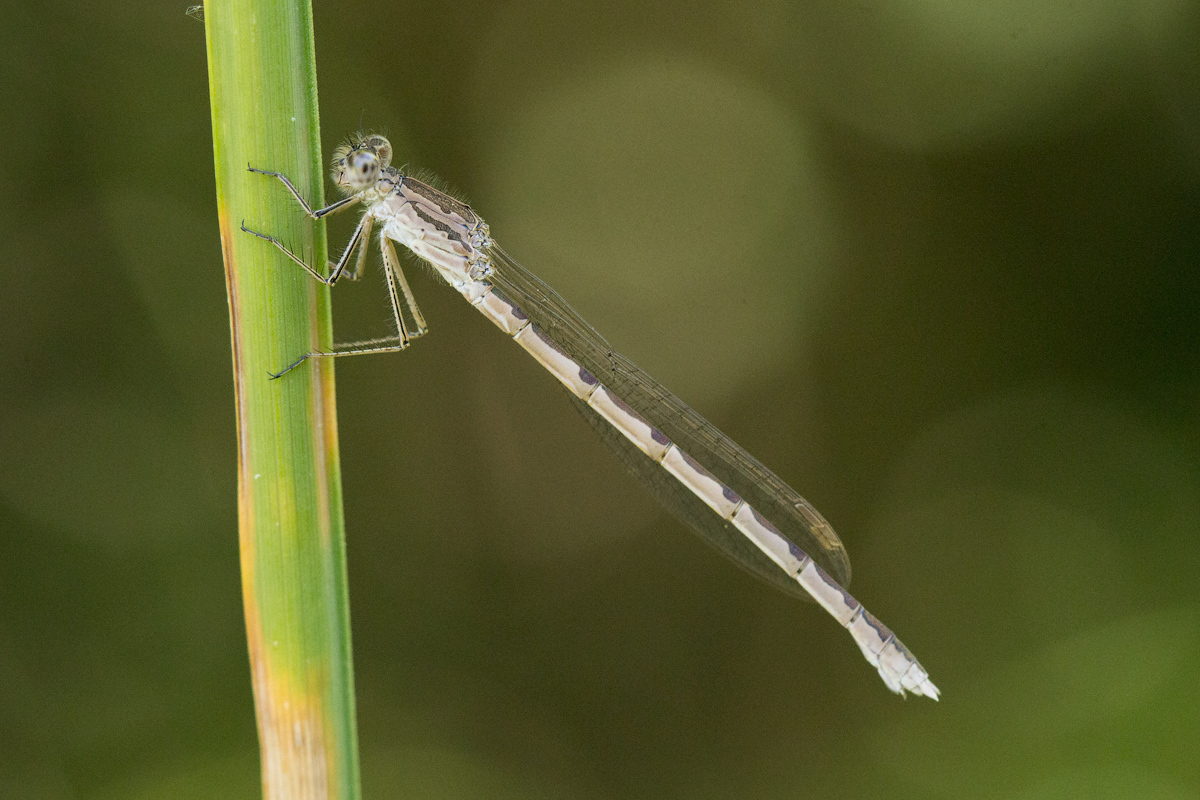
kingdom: Animalia
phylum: Arthropoda
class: Insecta
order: Odonata
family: Lestidae
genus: Sympecma
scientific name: Sympecma paedisca
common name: Siberian winter damsel
